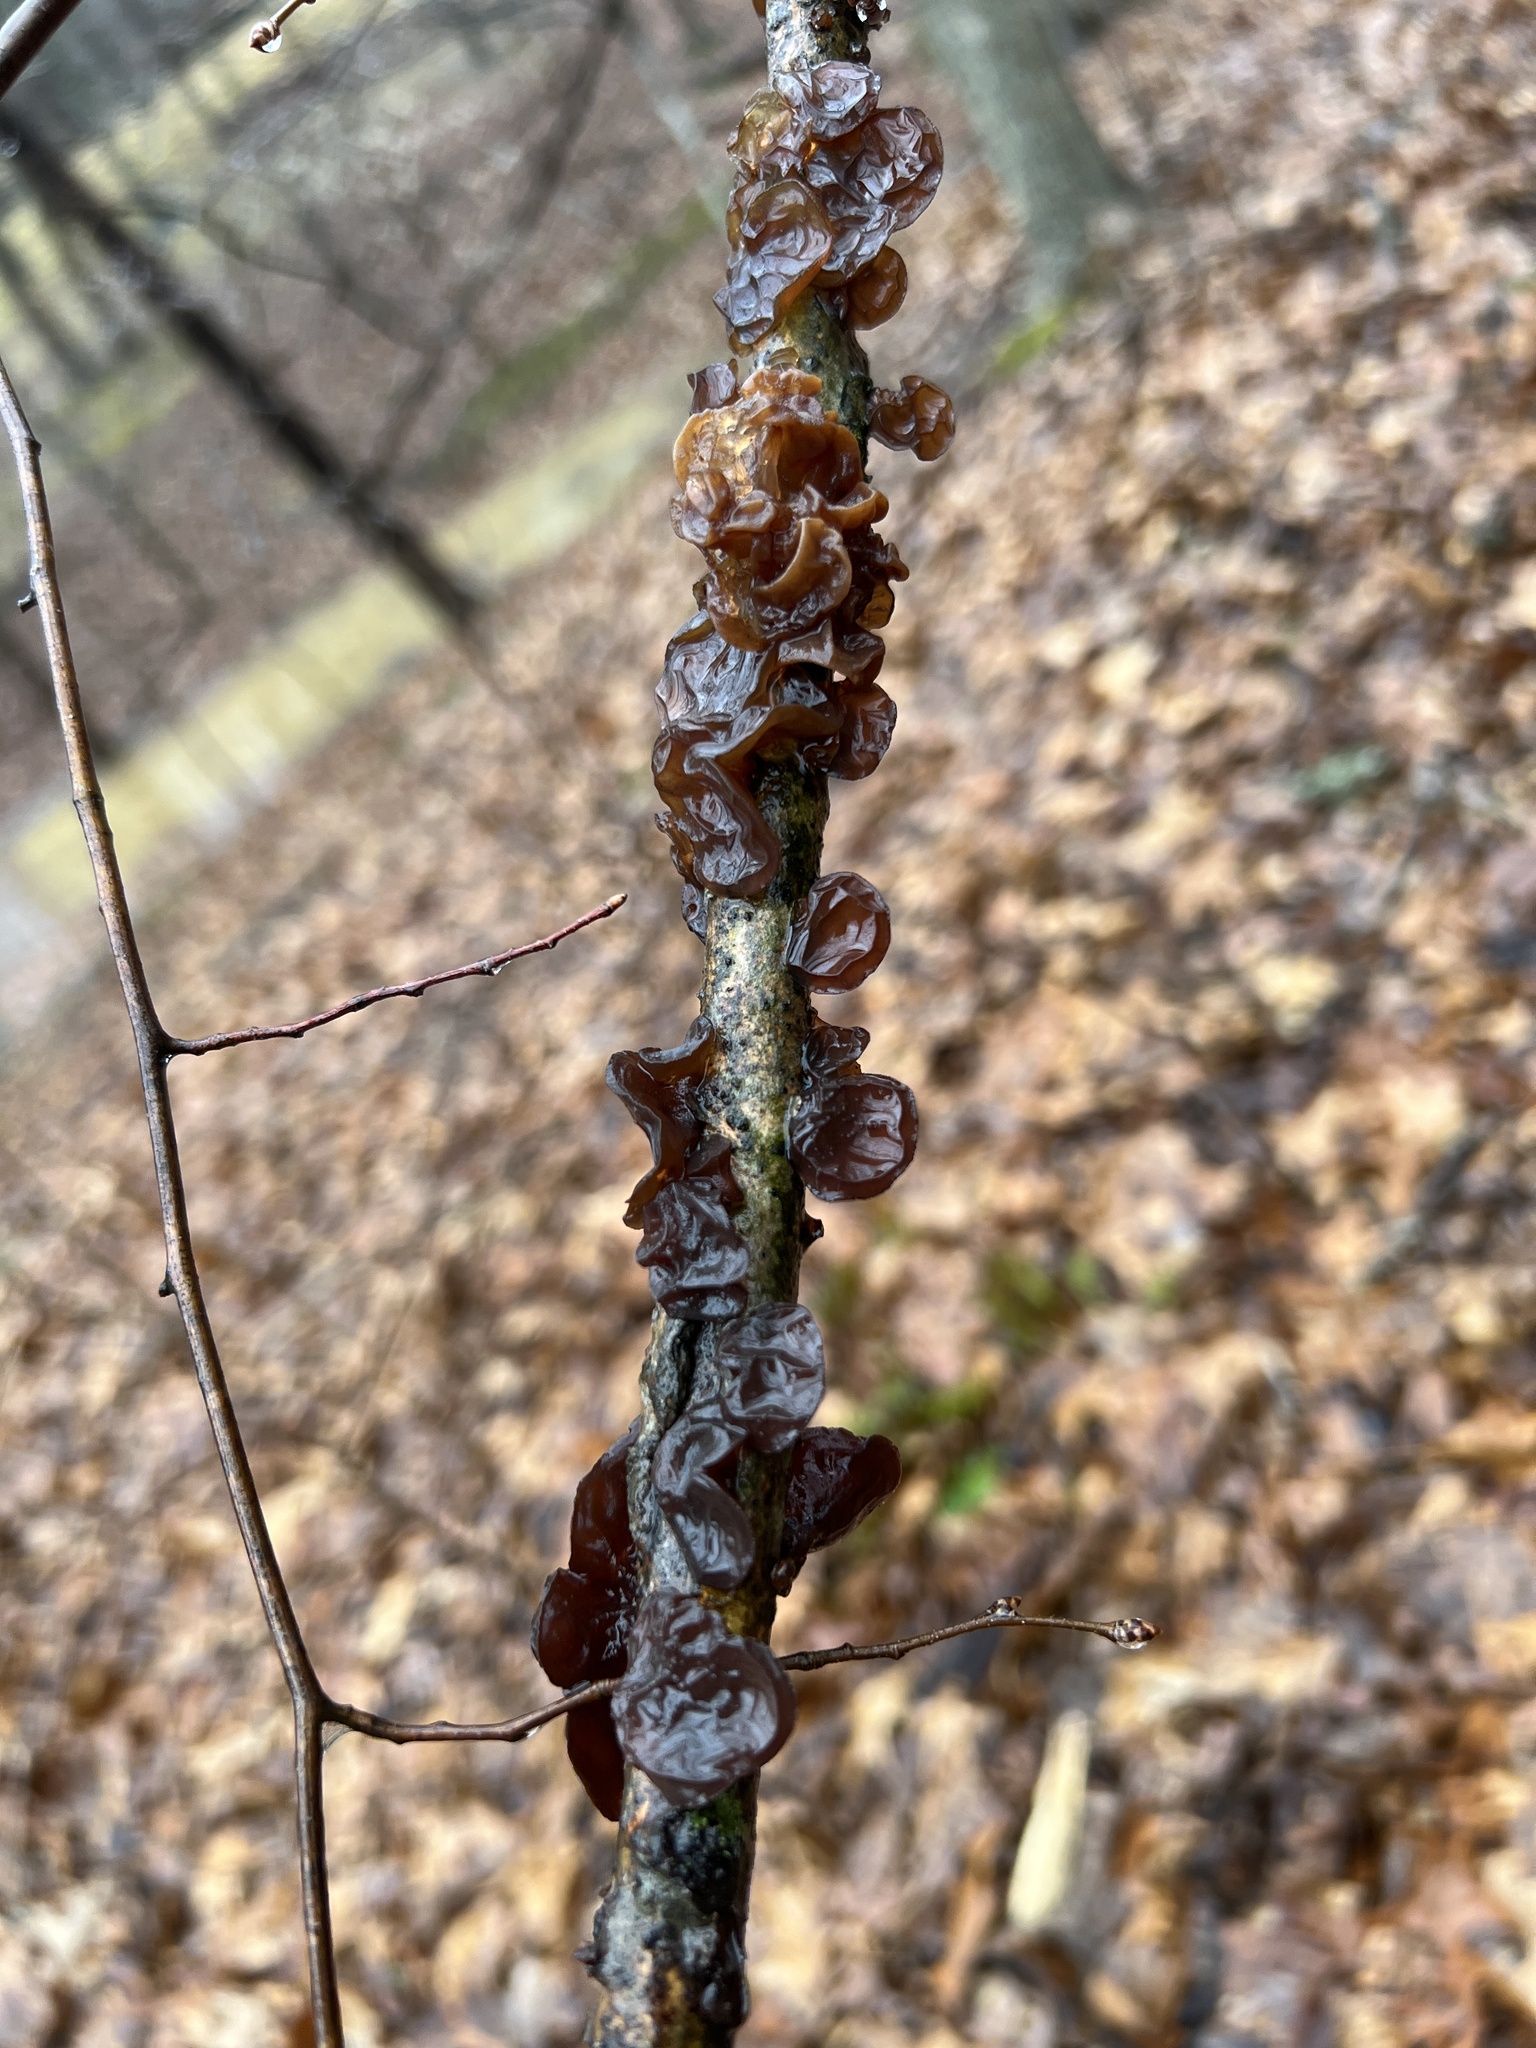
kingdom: Fungi
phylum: Basidiomycota
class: Agaricomycetes
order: Auriculariales
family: Auriculariaceae
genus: Exidia
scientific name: Exidia
